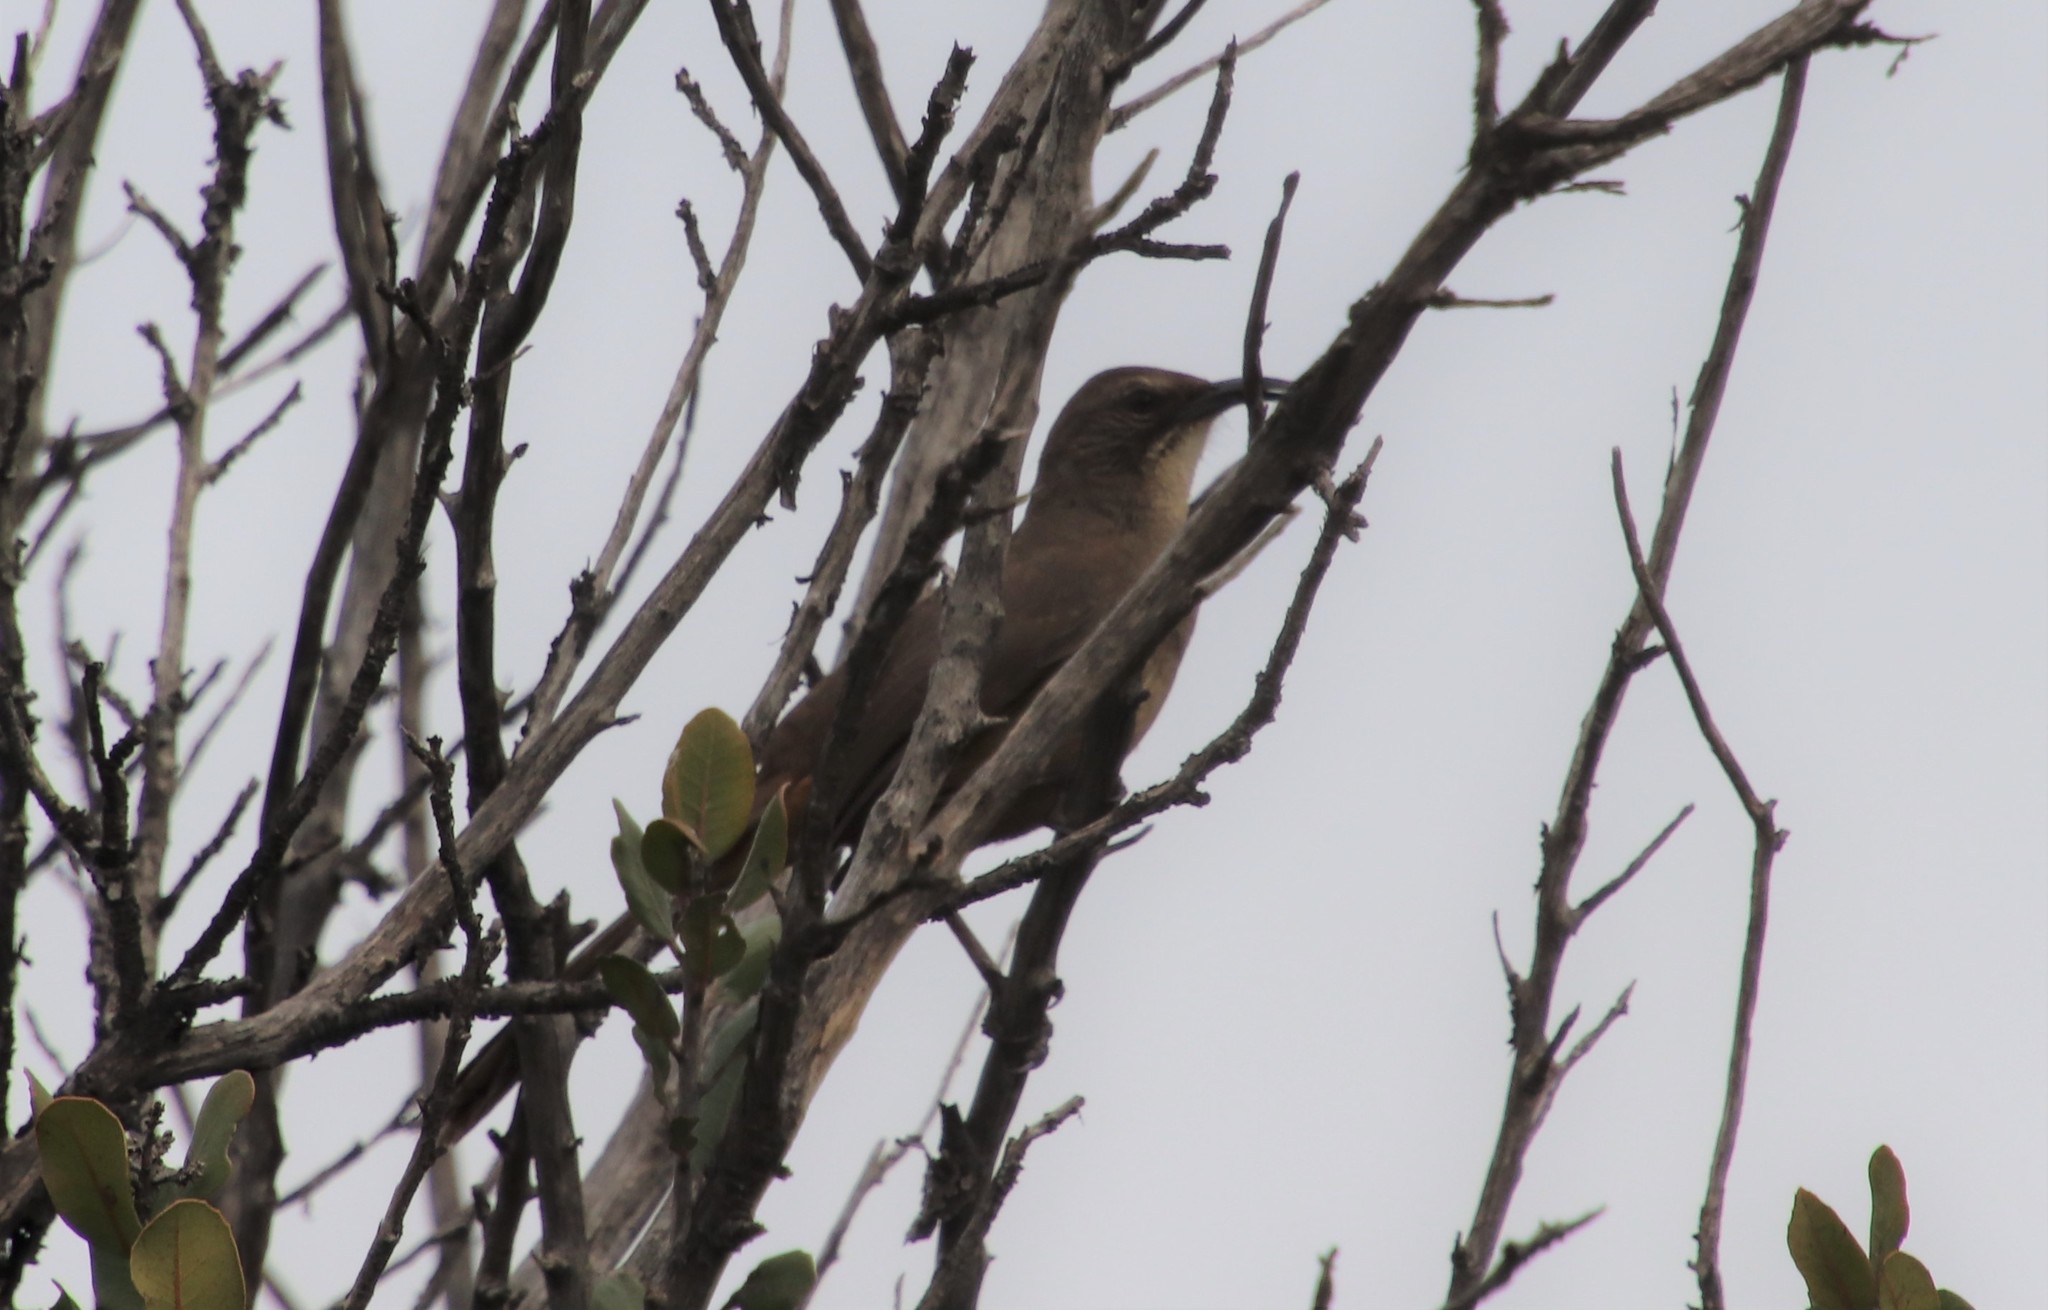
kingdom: Animalia
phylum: Chordata
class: Aves
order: Passeriformes
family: Mimidae
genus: Toxostoma
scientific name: Toxostoma redivivum
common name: California thrasher
